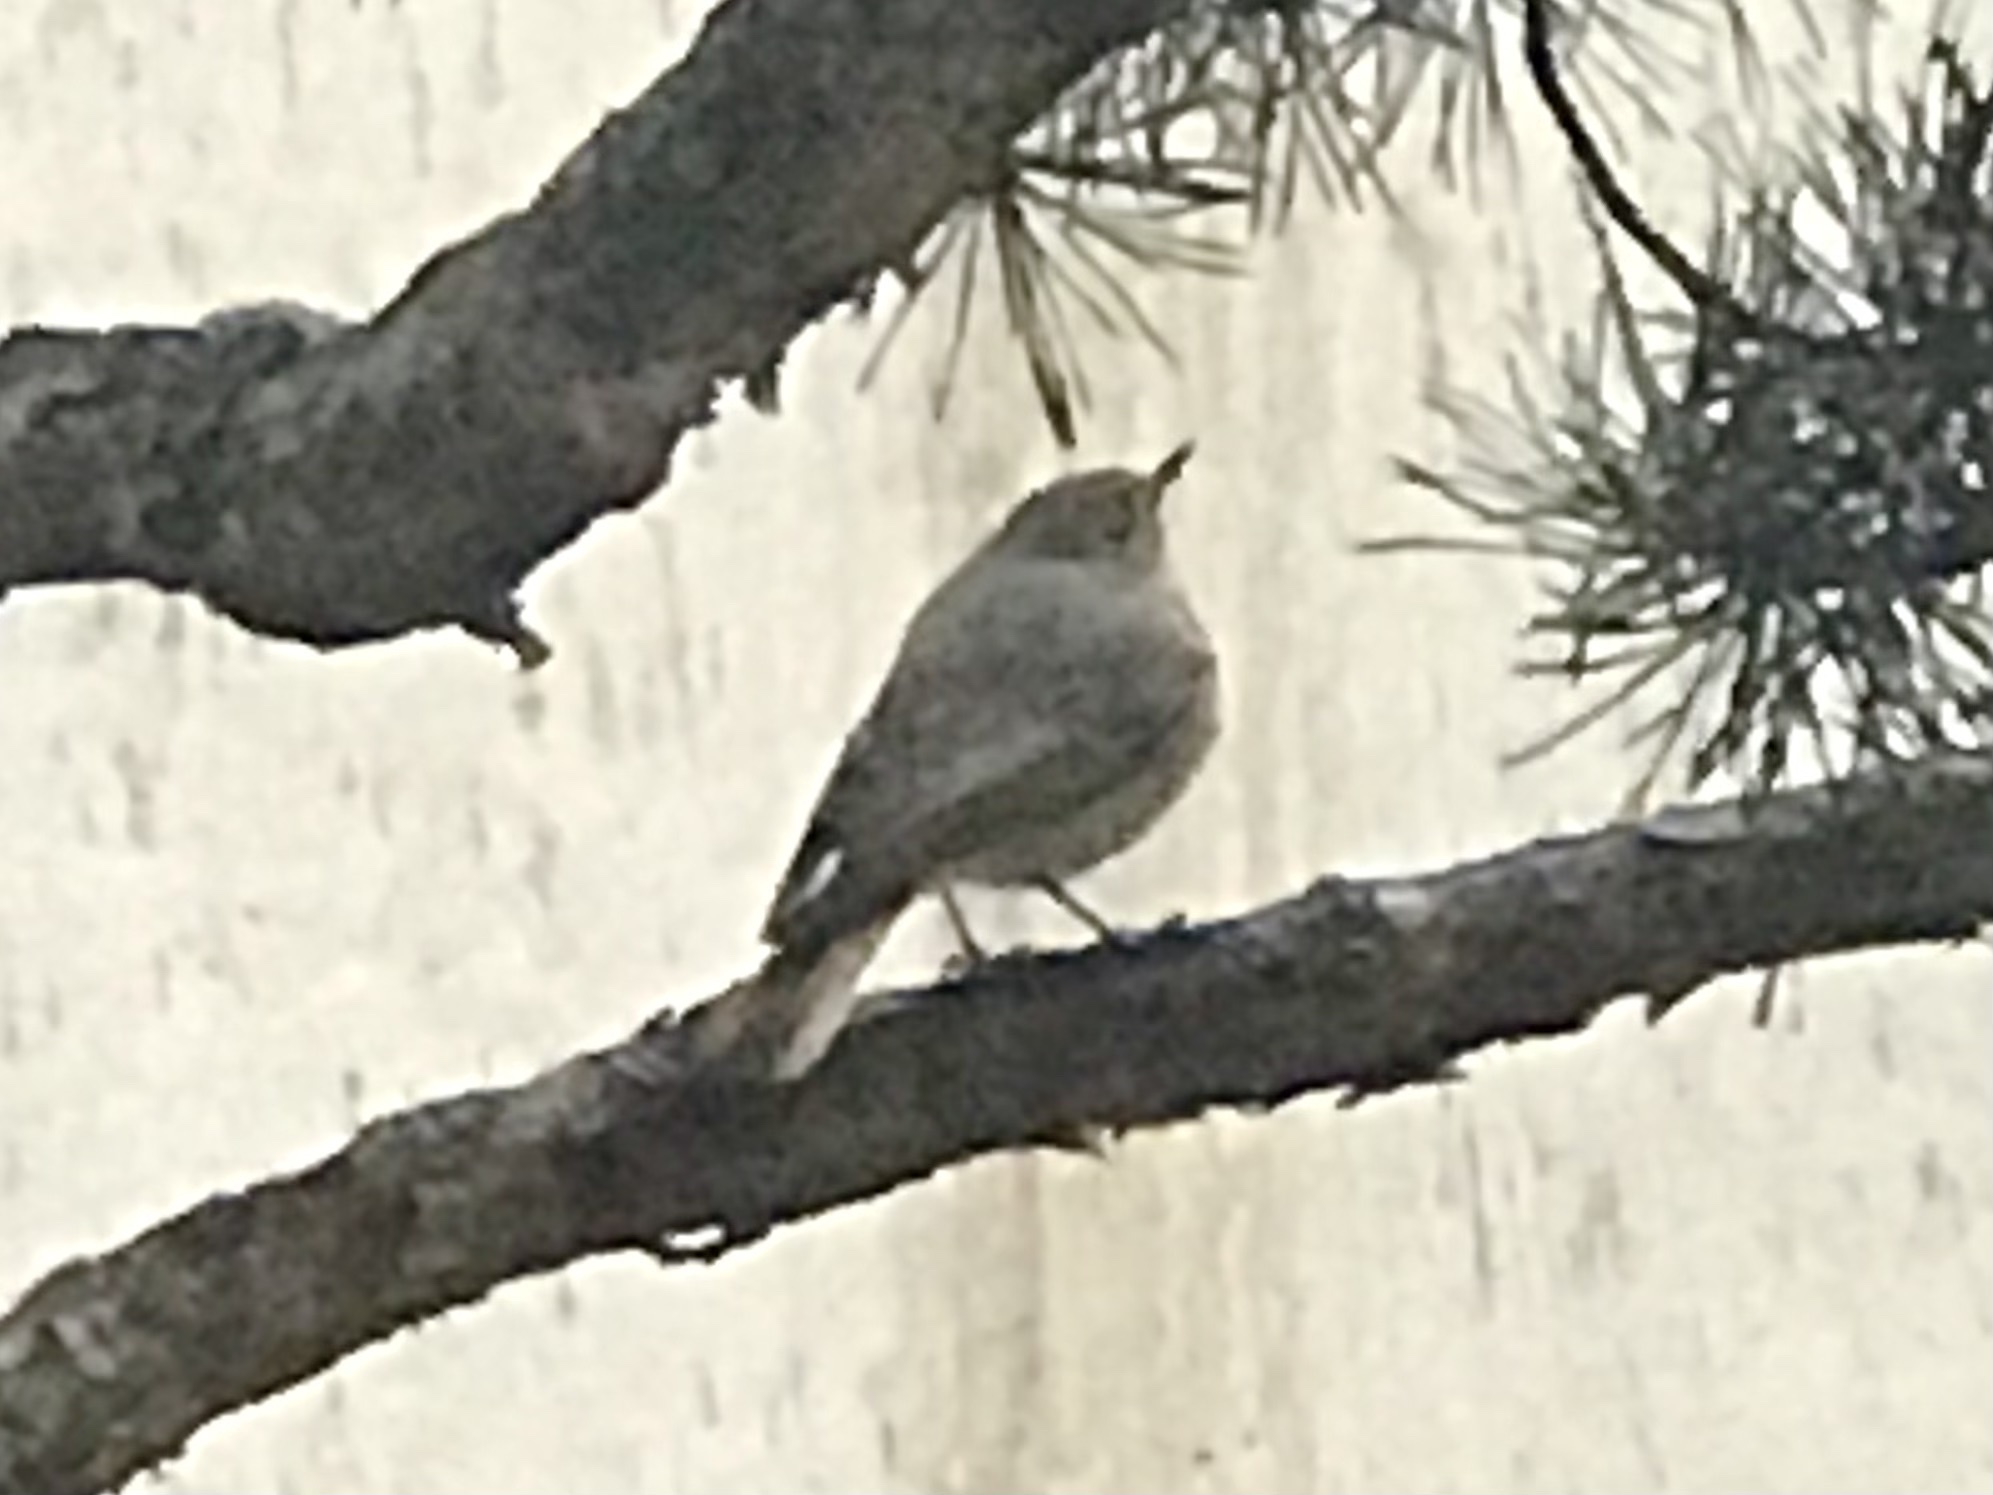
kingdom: Animalia
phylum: Chordata
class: Aves
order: Passeriformes
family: Muscicapidae
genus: Phoenicurus
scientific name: Phoenicurus ochruros
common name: Black redstart
